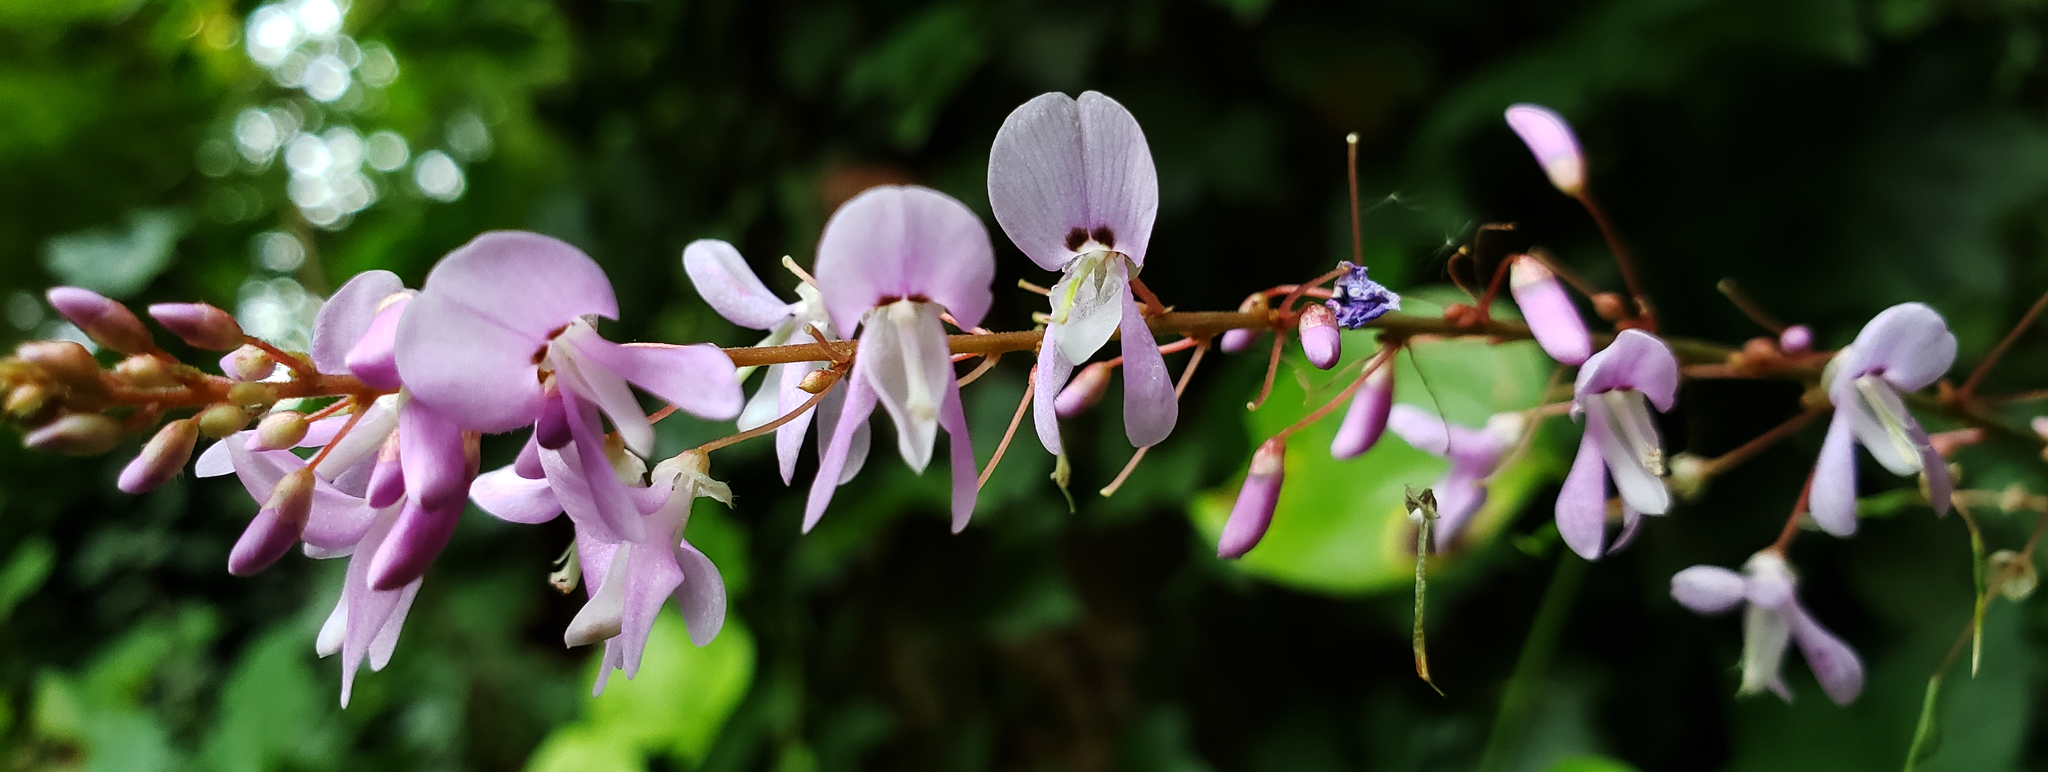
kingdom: Plantae
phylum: Tracheophyta
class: Magnoliopsida
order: Fabales
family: Fabaceae
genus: Hylodesmum
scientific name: Hylodesmum nudiflorum
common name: Bare-stemmed tick-trefoil
